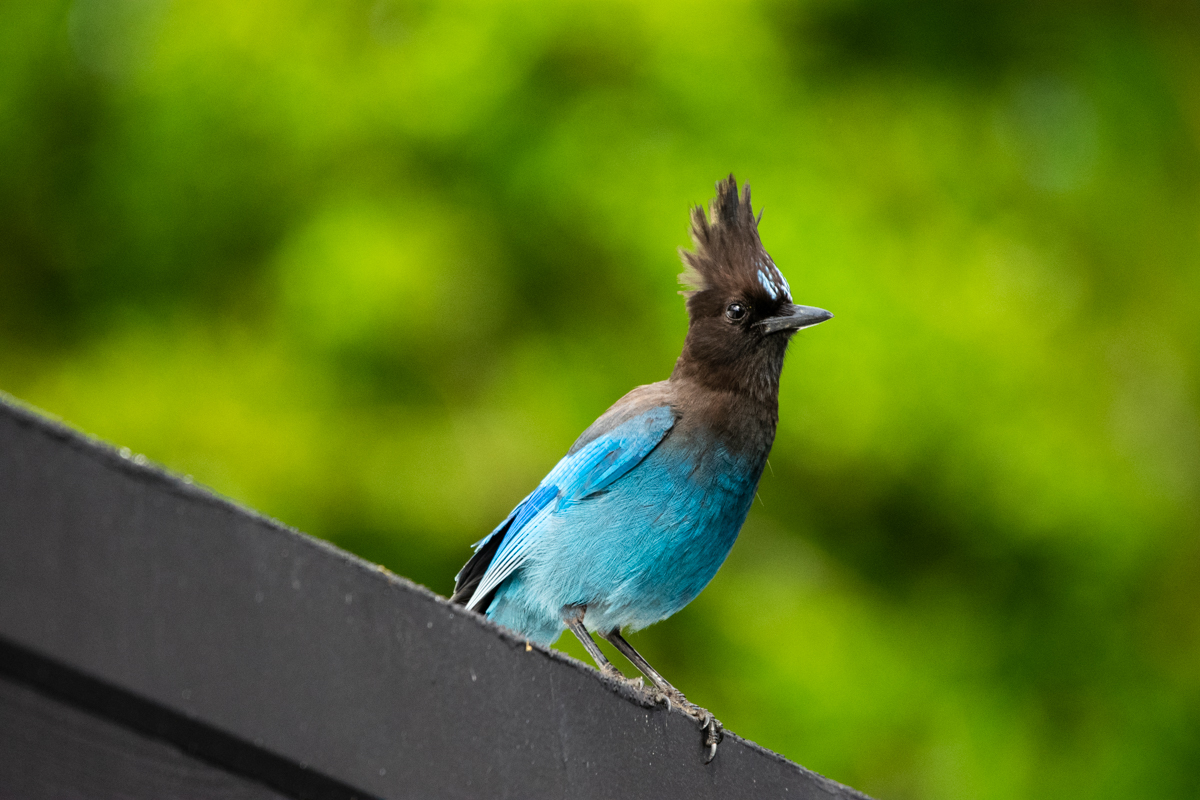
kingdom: Animalia
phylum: Chordata
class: Aves
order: Passeriformes
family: Corvidae
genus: Cyanocitta
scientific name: Cyanocitta stelleri
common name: Steller's jay
